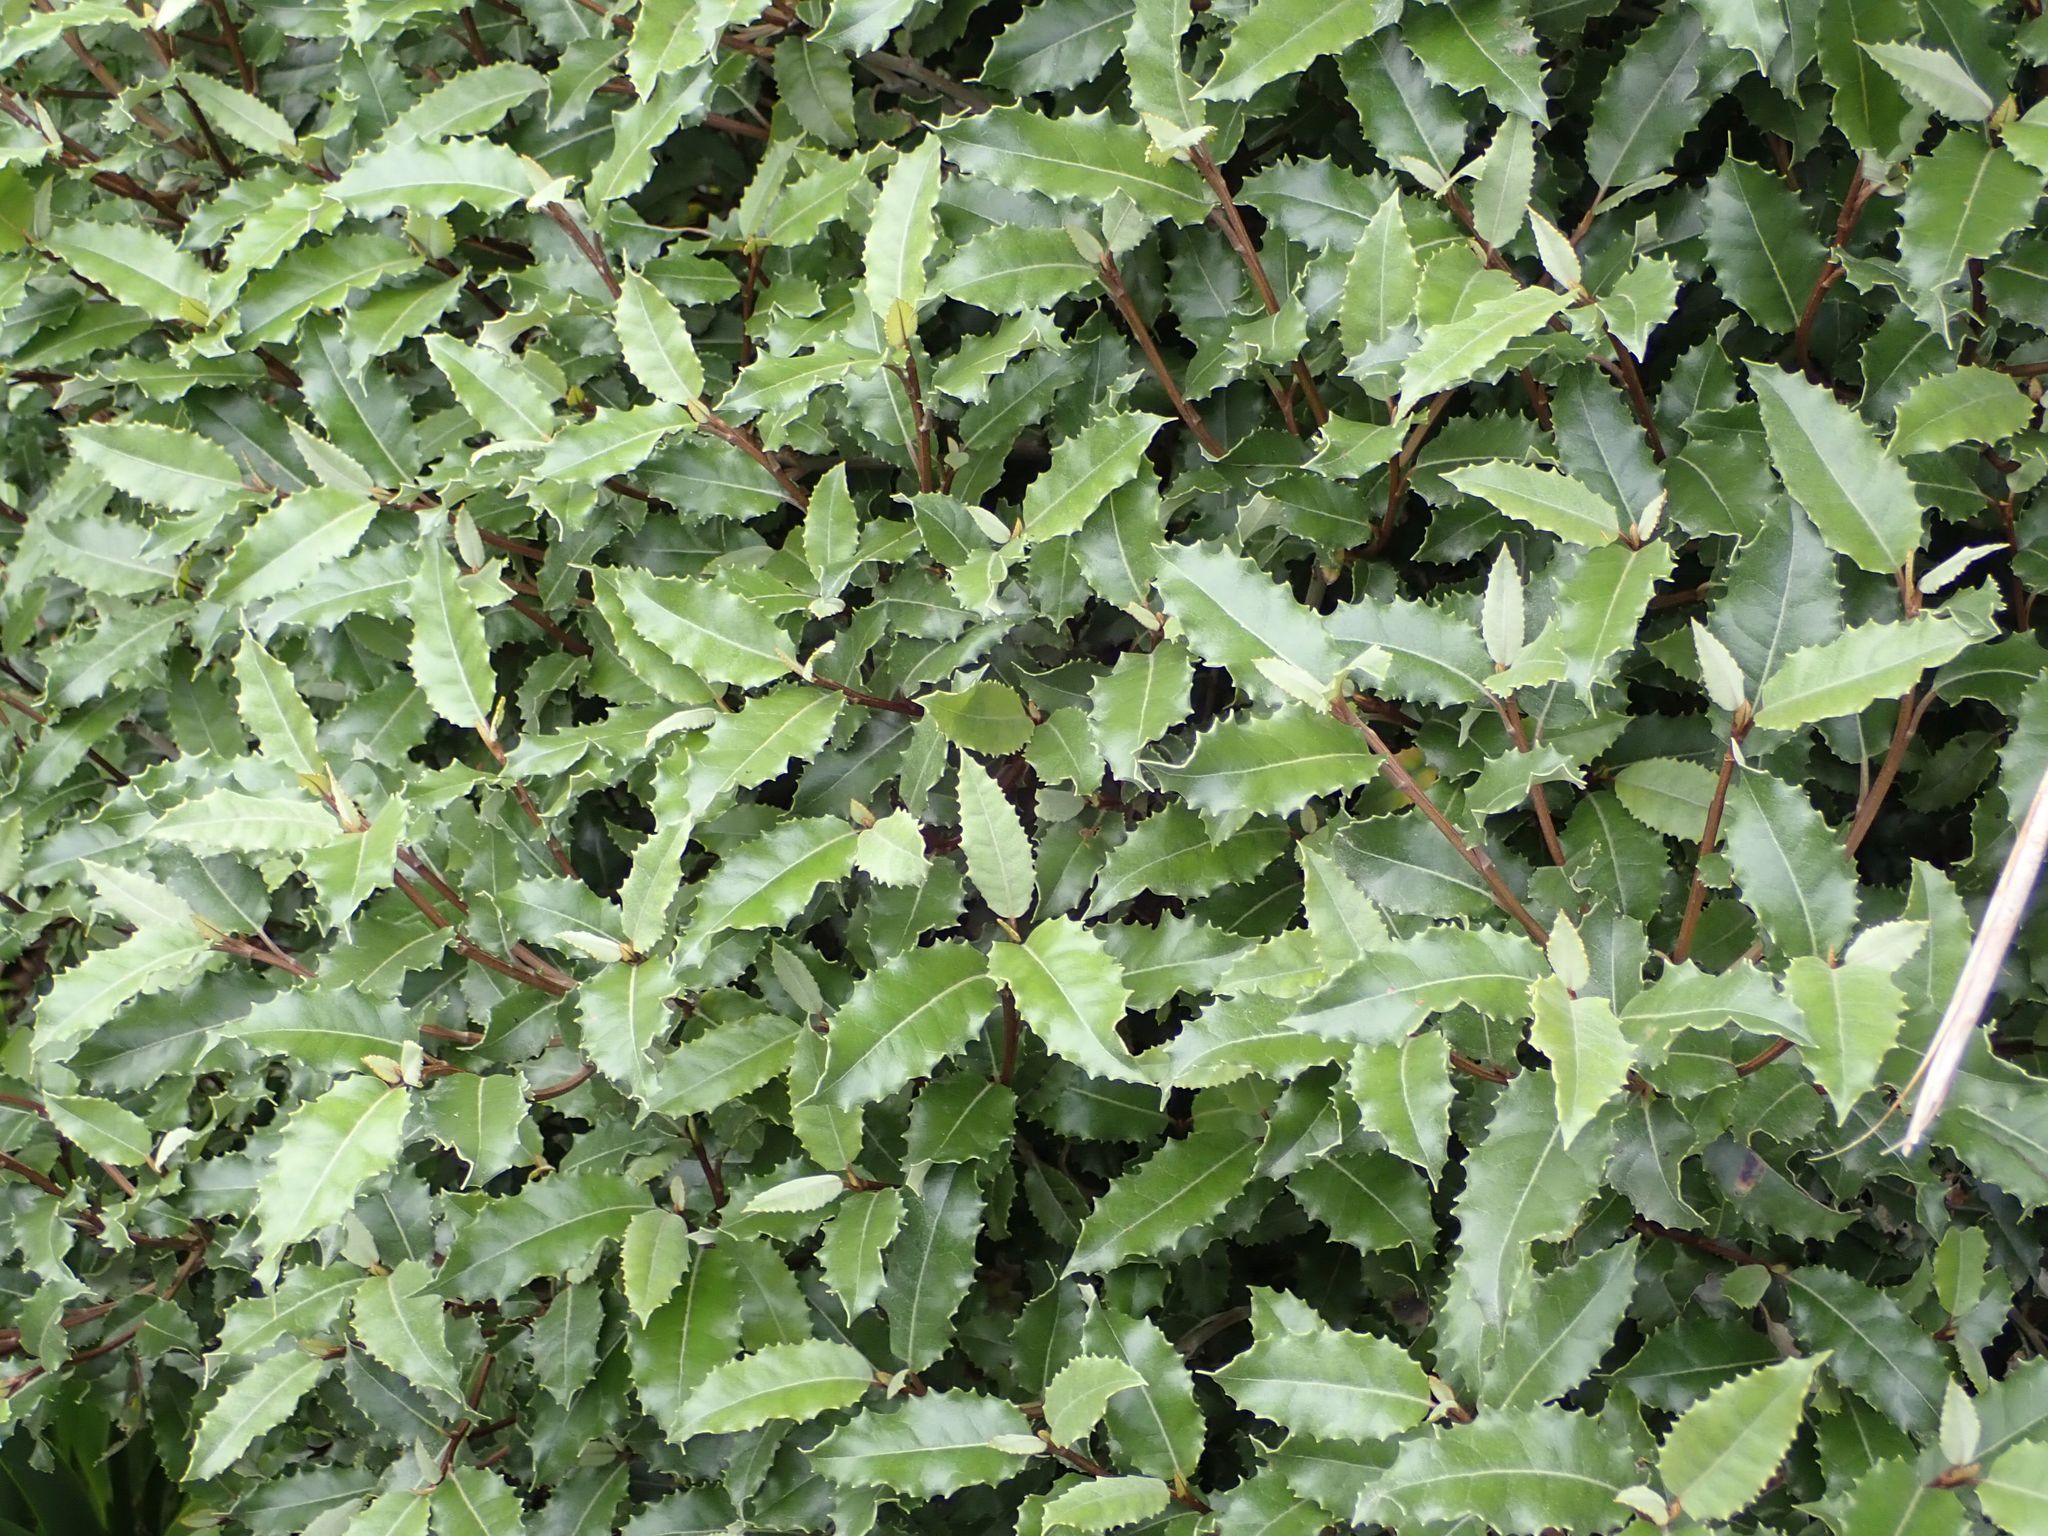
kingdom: Plantae
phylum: Tracheophyta
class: Magnoliopsida
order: Asterales
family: Asteraceae
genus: Olearia
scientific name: Olearia macrodonta
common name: New zealand holly
